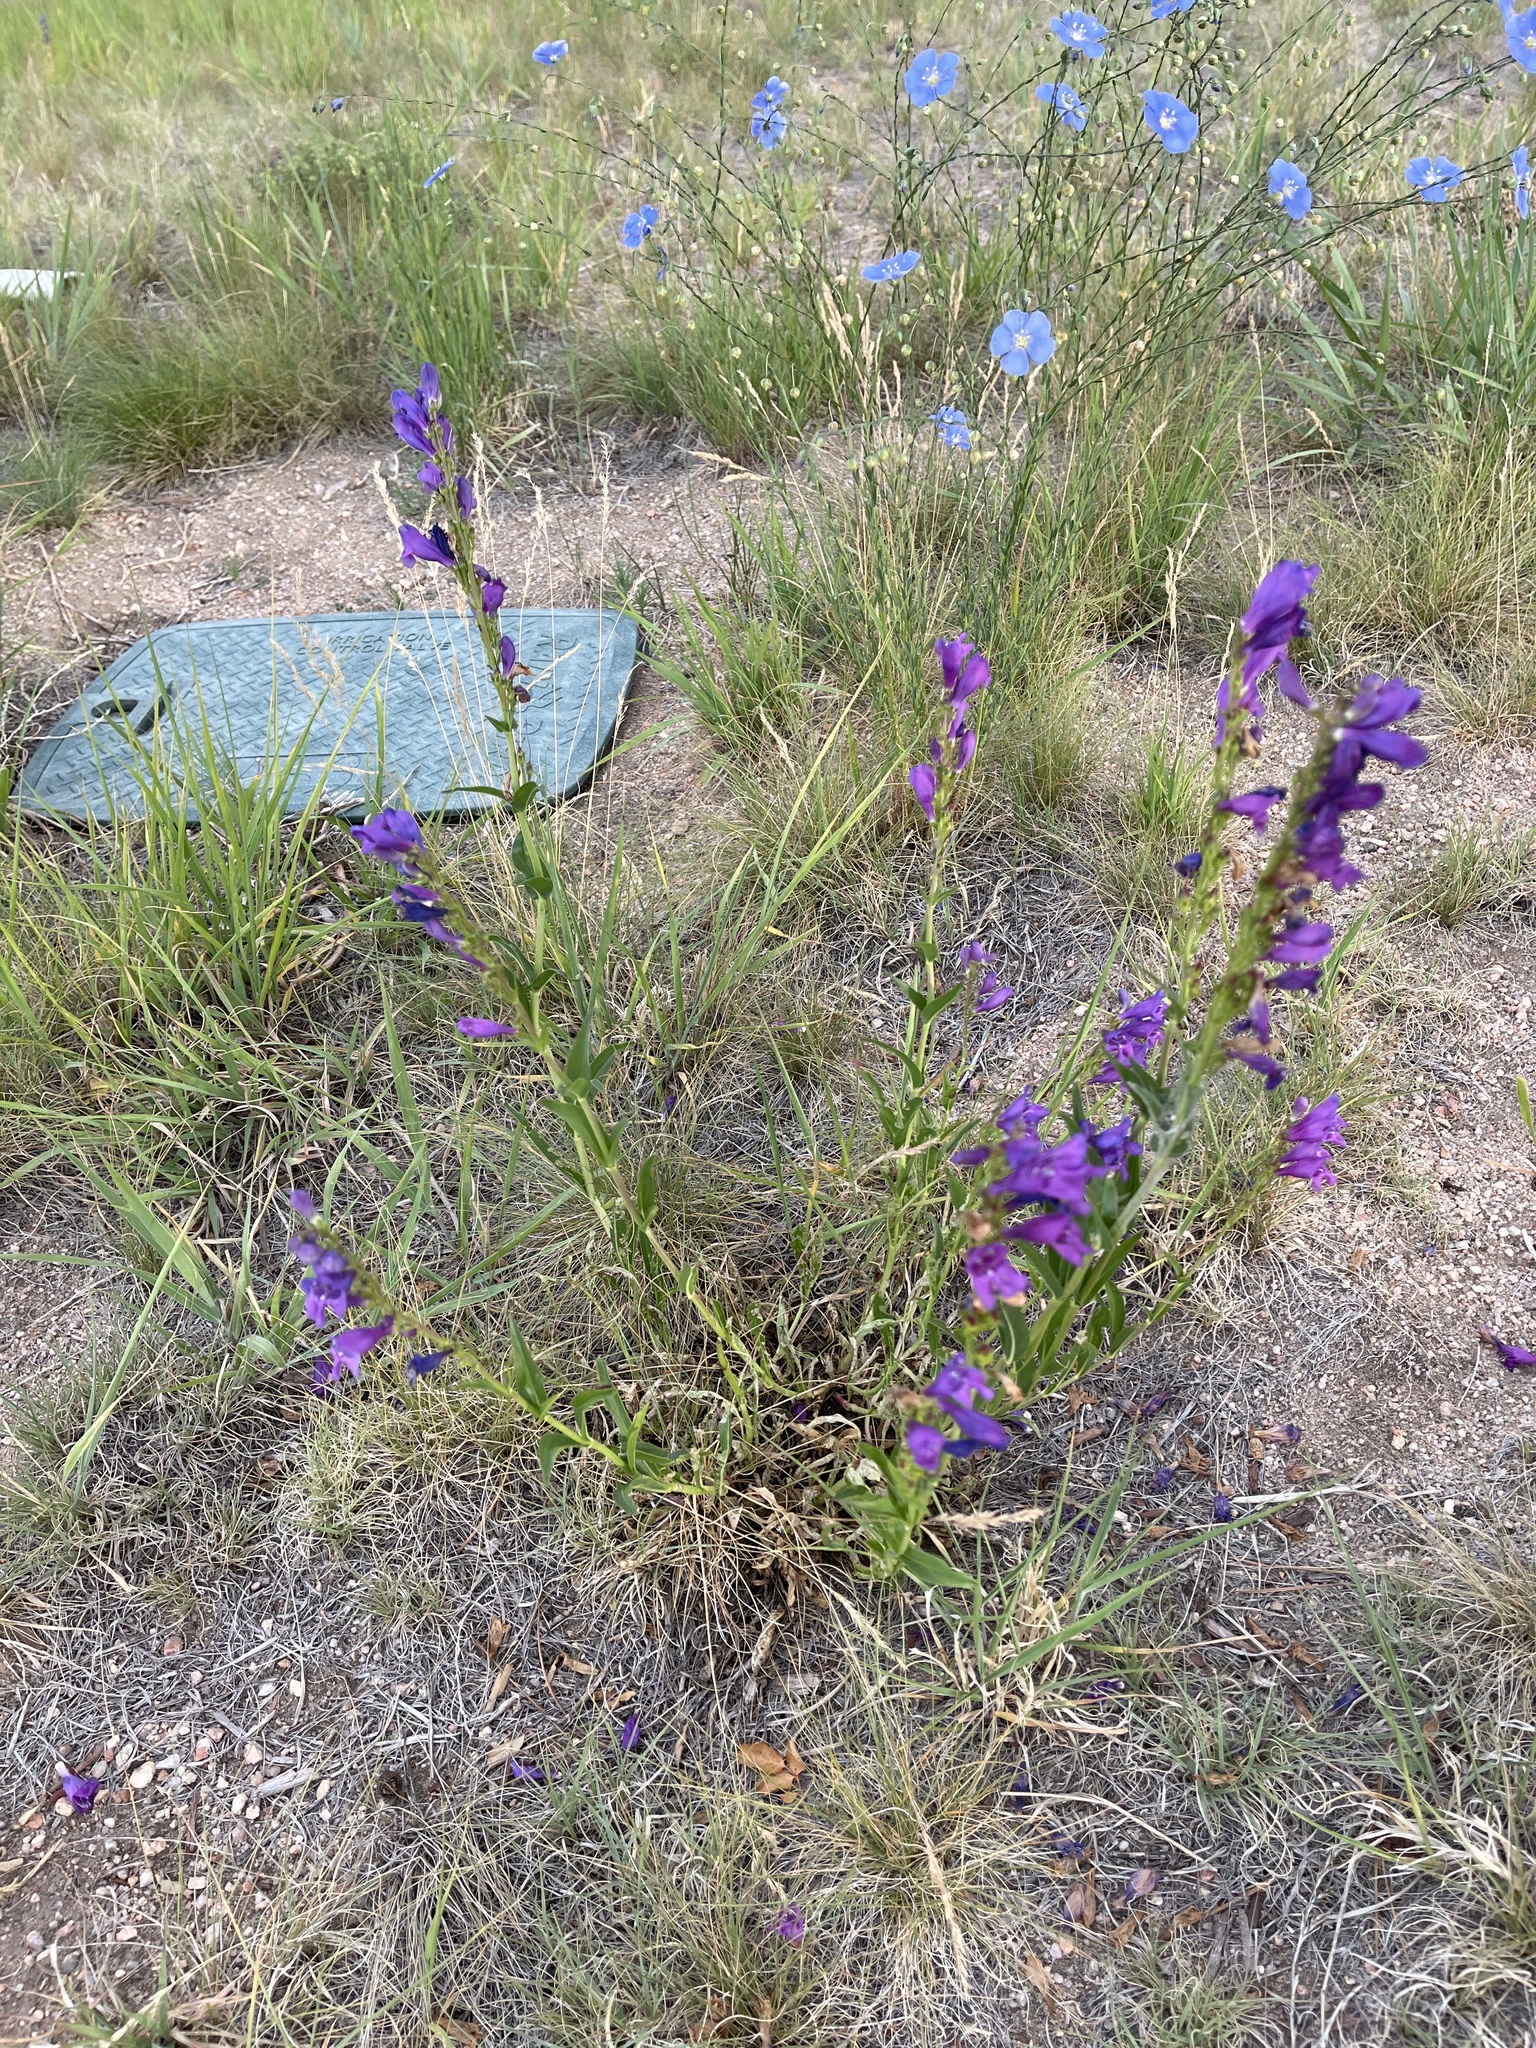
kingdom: Plantae
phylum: Tracheophyta
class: Magnoliopsida
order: Lamiales
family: Plantaginaceae
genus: Penstemon
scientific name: Penstemon strictus
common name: Rocky mountain penstemon
